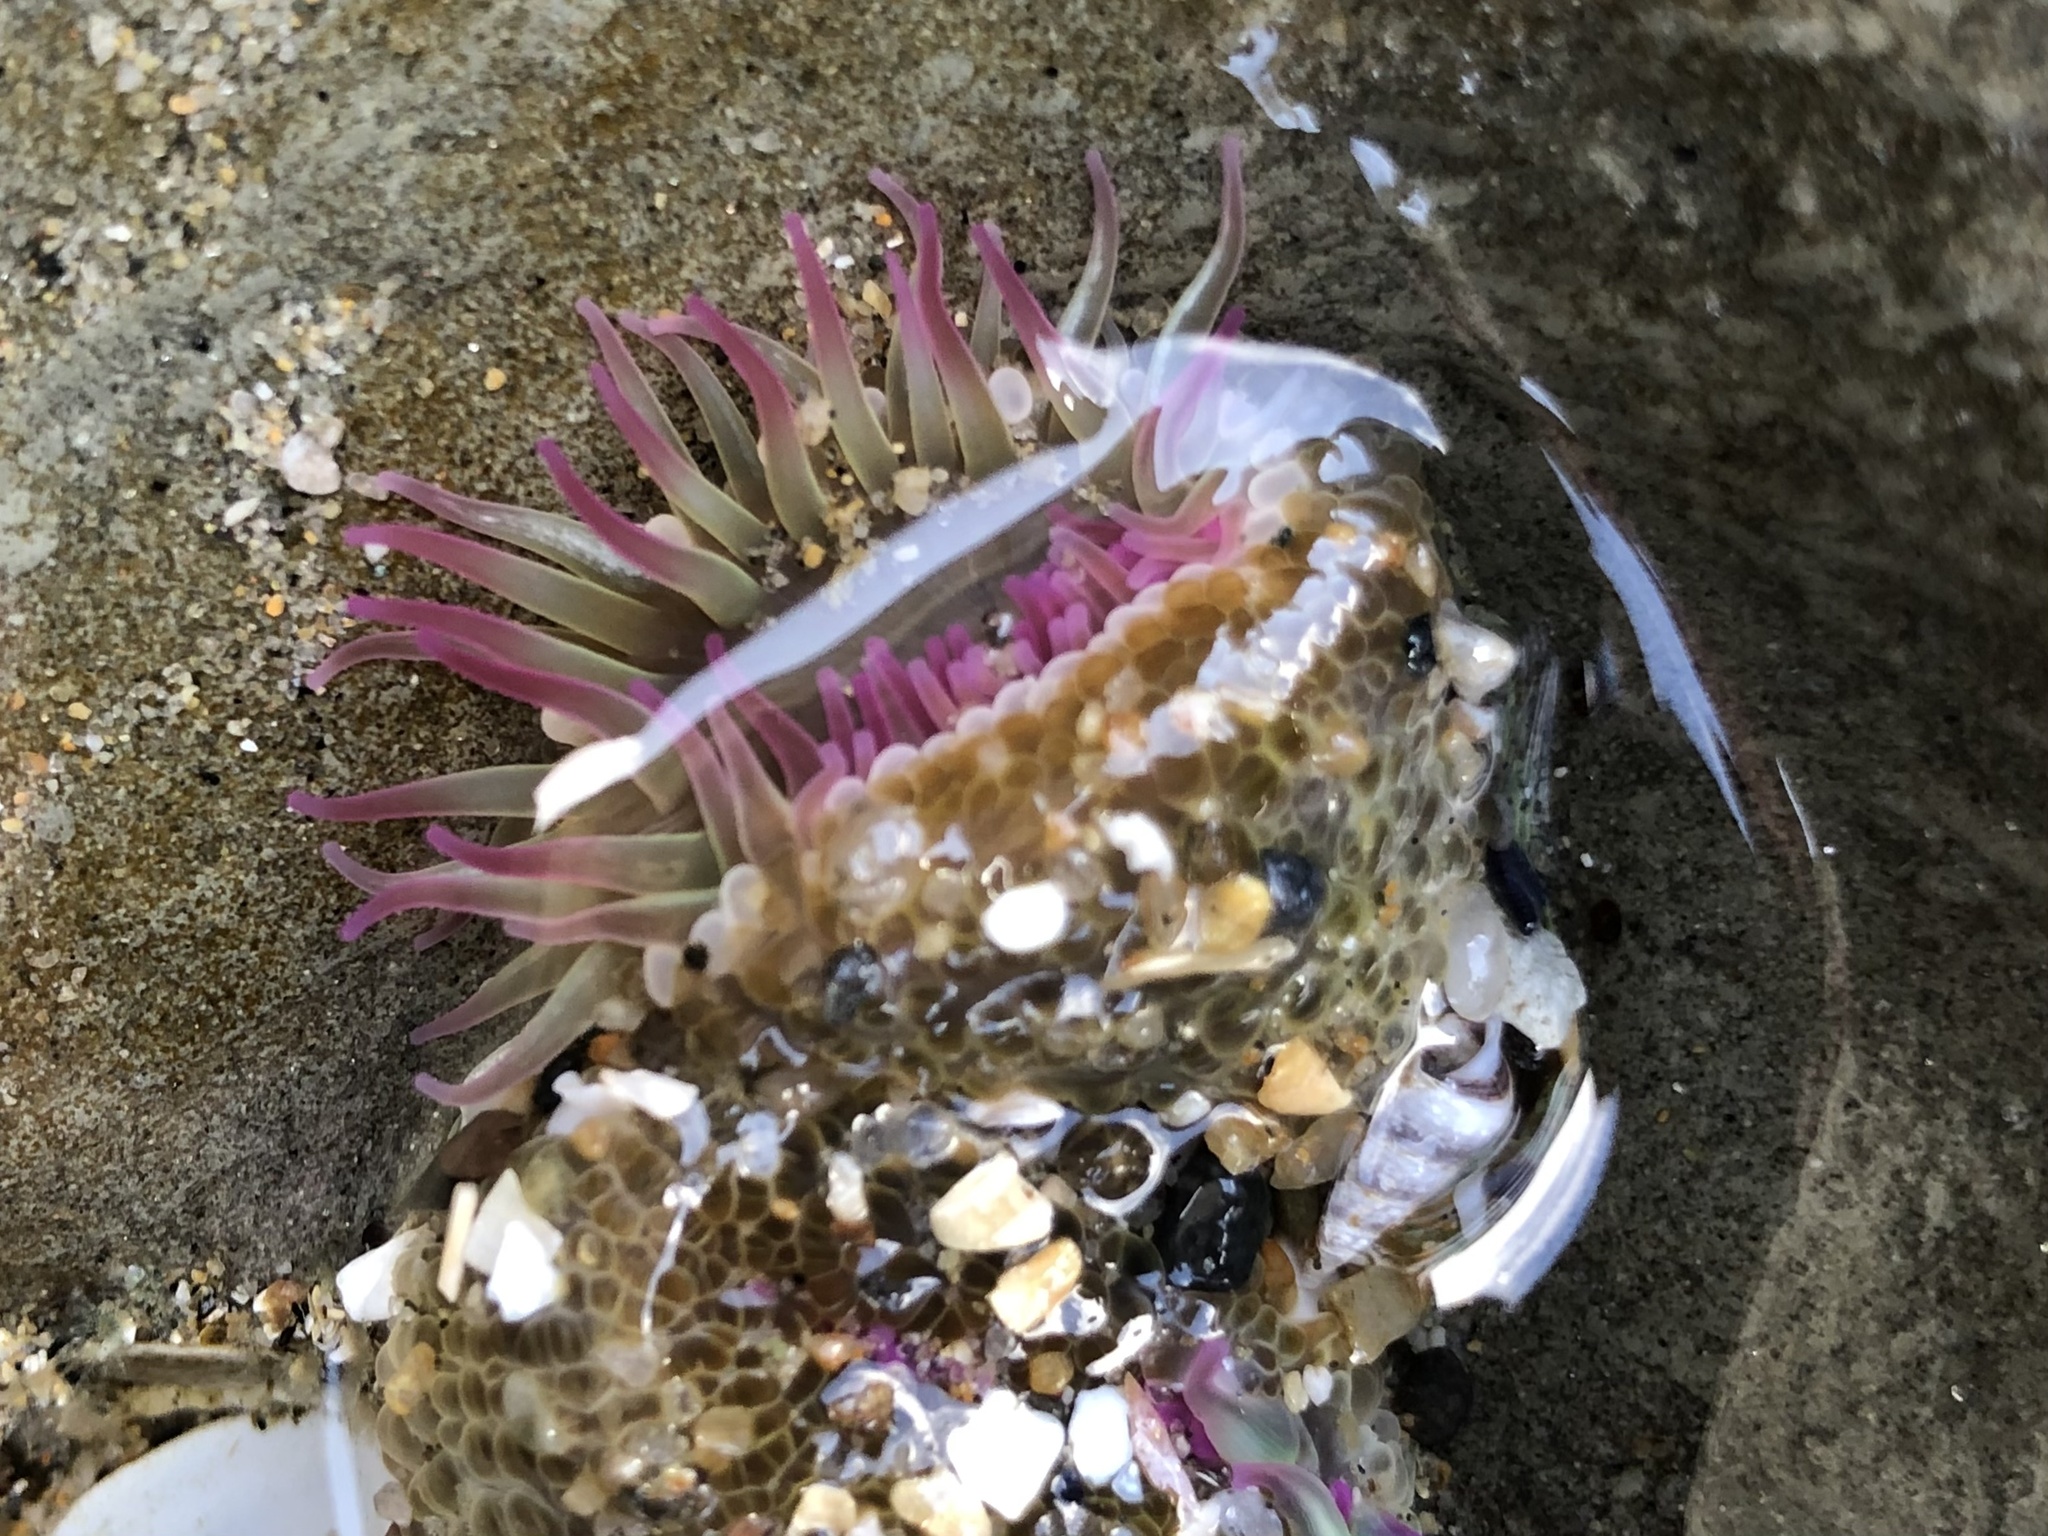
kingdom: Animalia
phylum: Cnidaria
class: Anthozoa
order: Actiniaria
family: Actiniidae
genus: Anthopleura
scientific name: Anthopleura elegantissima
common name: Clonal anemone
